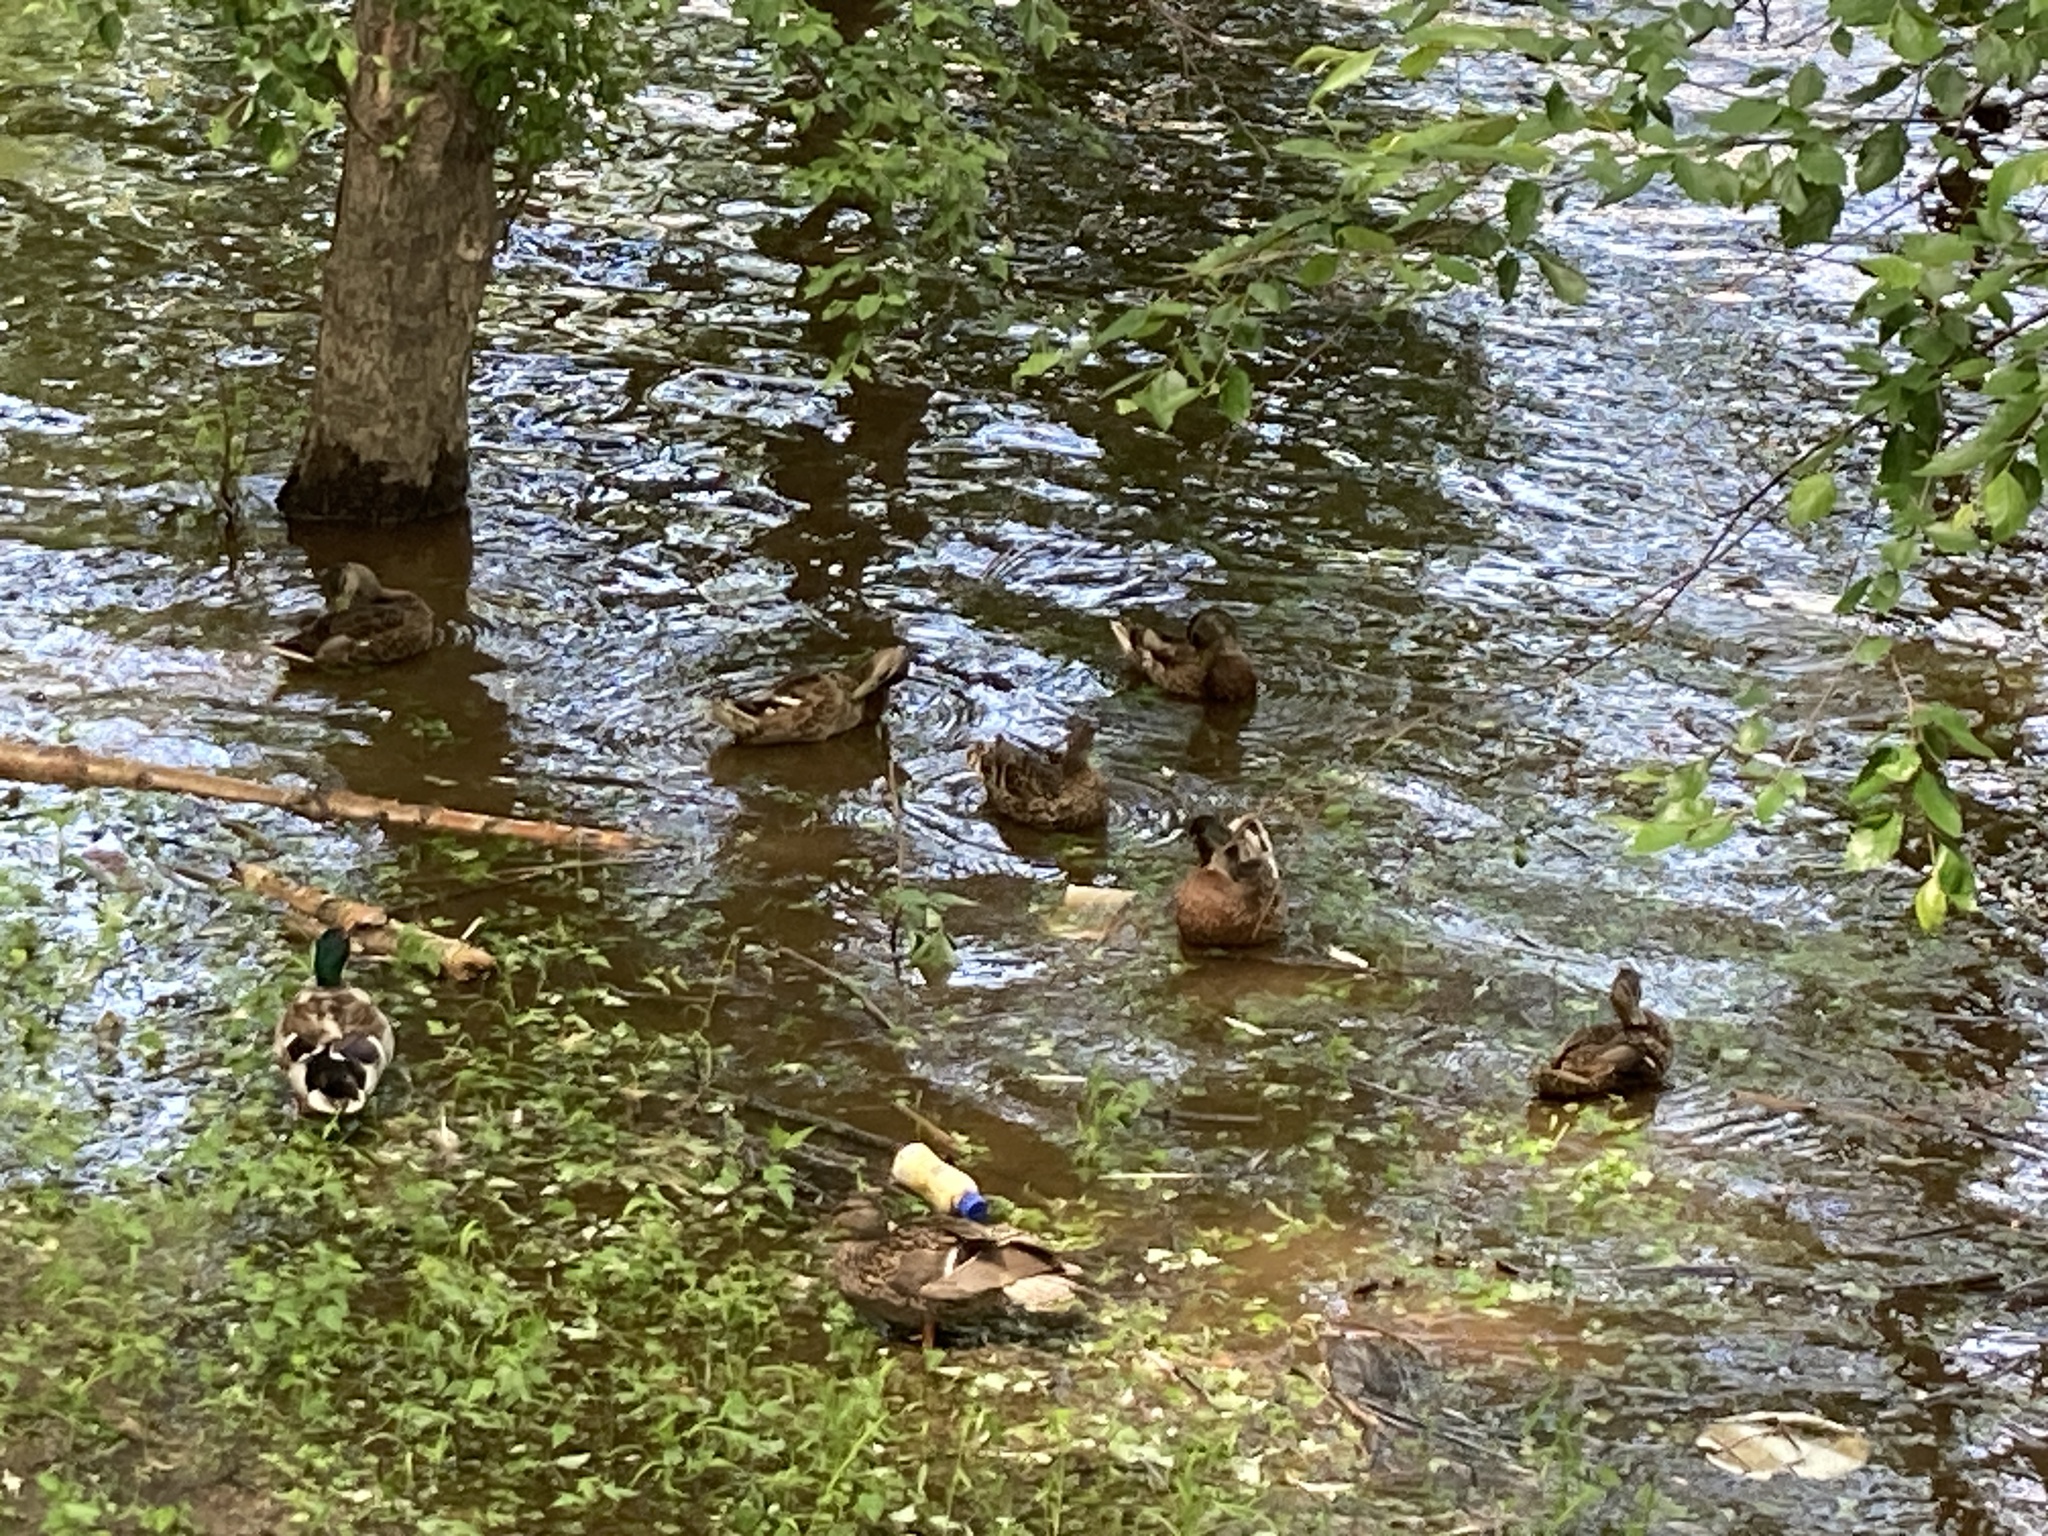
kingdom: Animalia
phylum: Chordata
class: Aves
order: Anseriformes
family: Anatidae
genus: Anas
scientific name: Anas platyrhynchos
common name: Mallard
